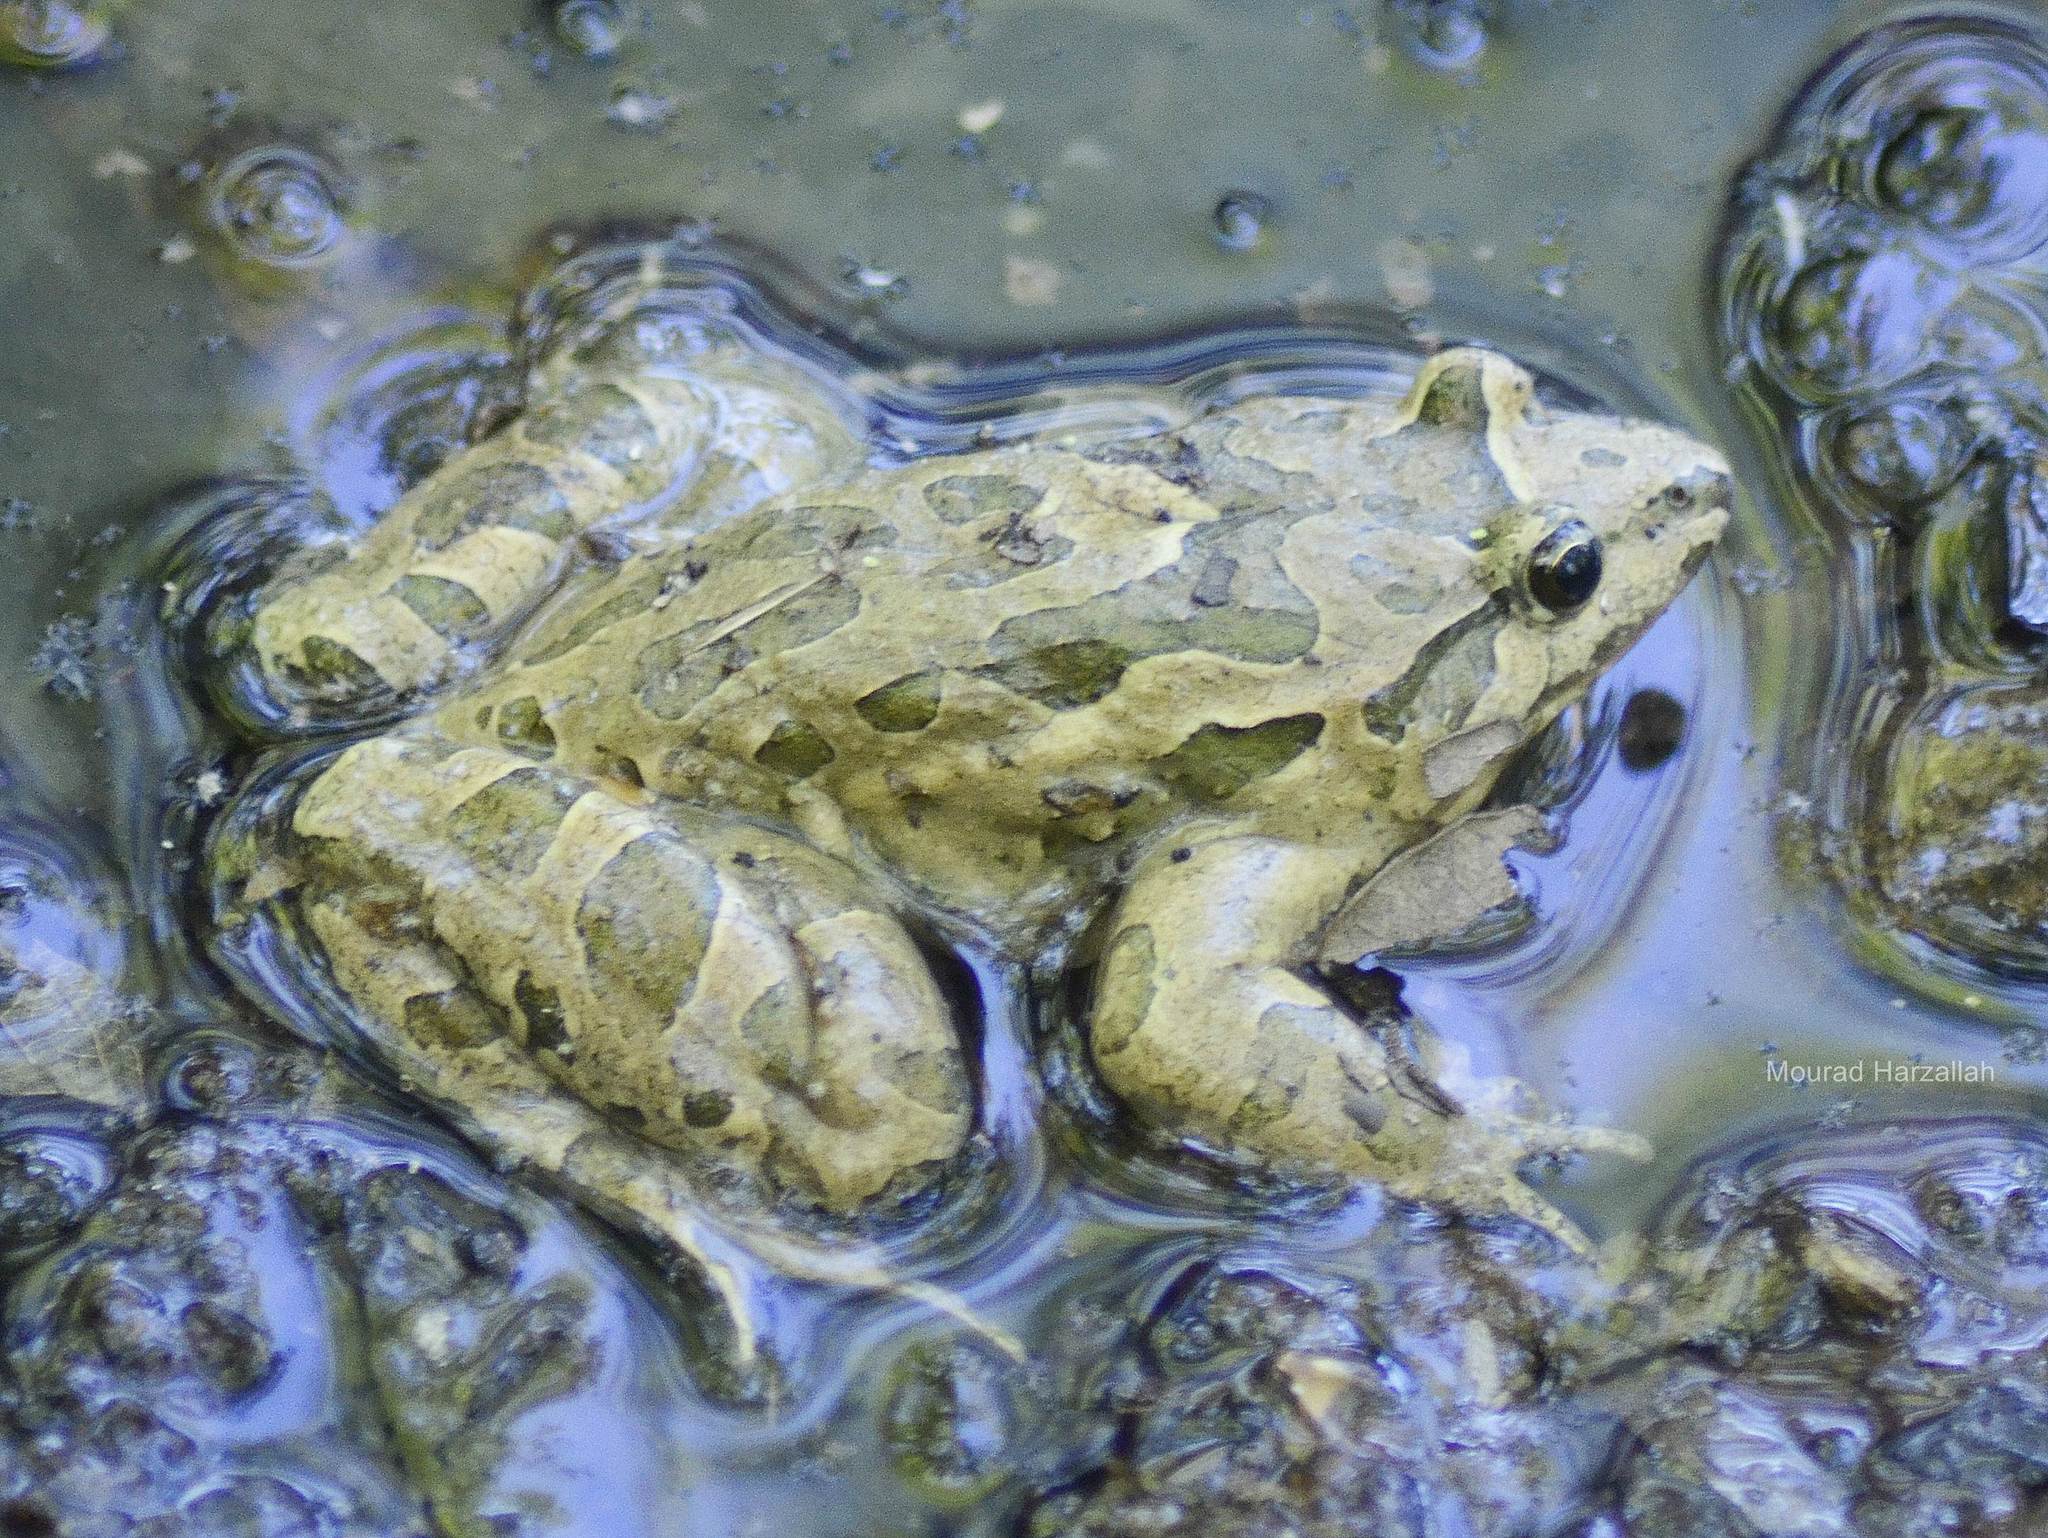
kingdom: Animalia
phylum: Chordata
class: Amphibia
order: Anura
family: Alytidae
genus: Discoglossus
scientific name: Discoglossus pictus
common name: Painted frog
